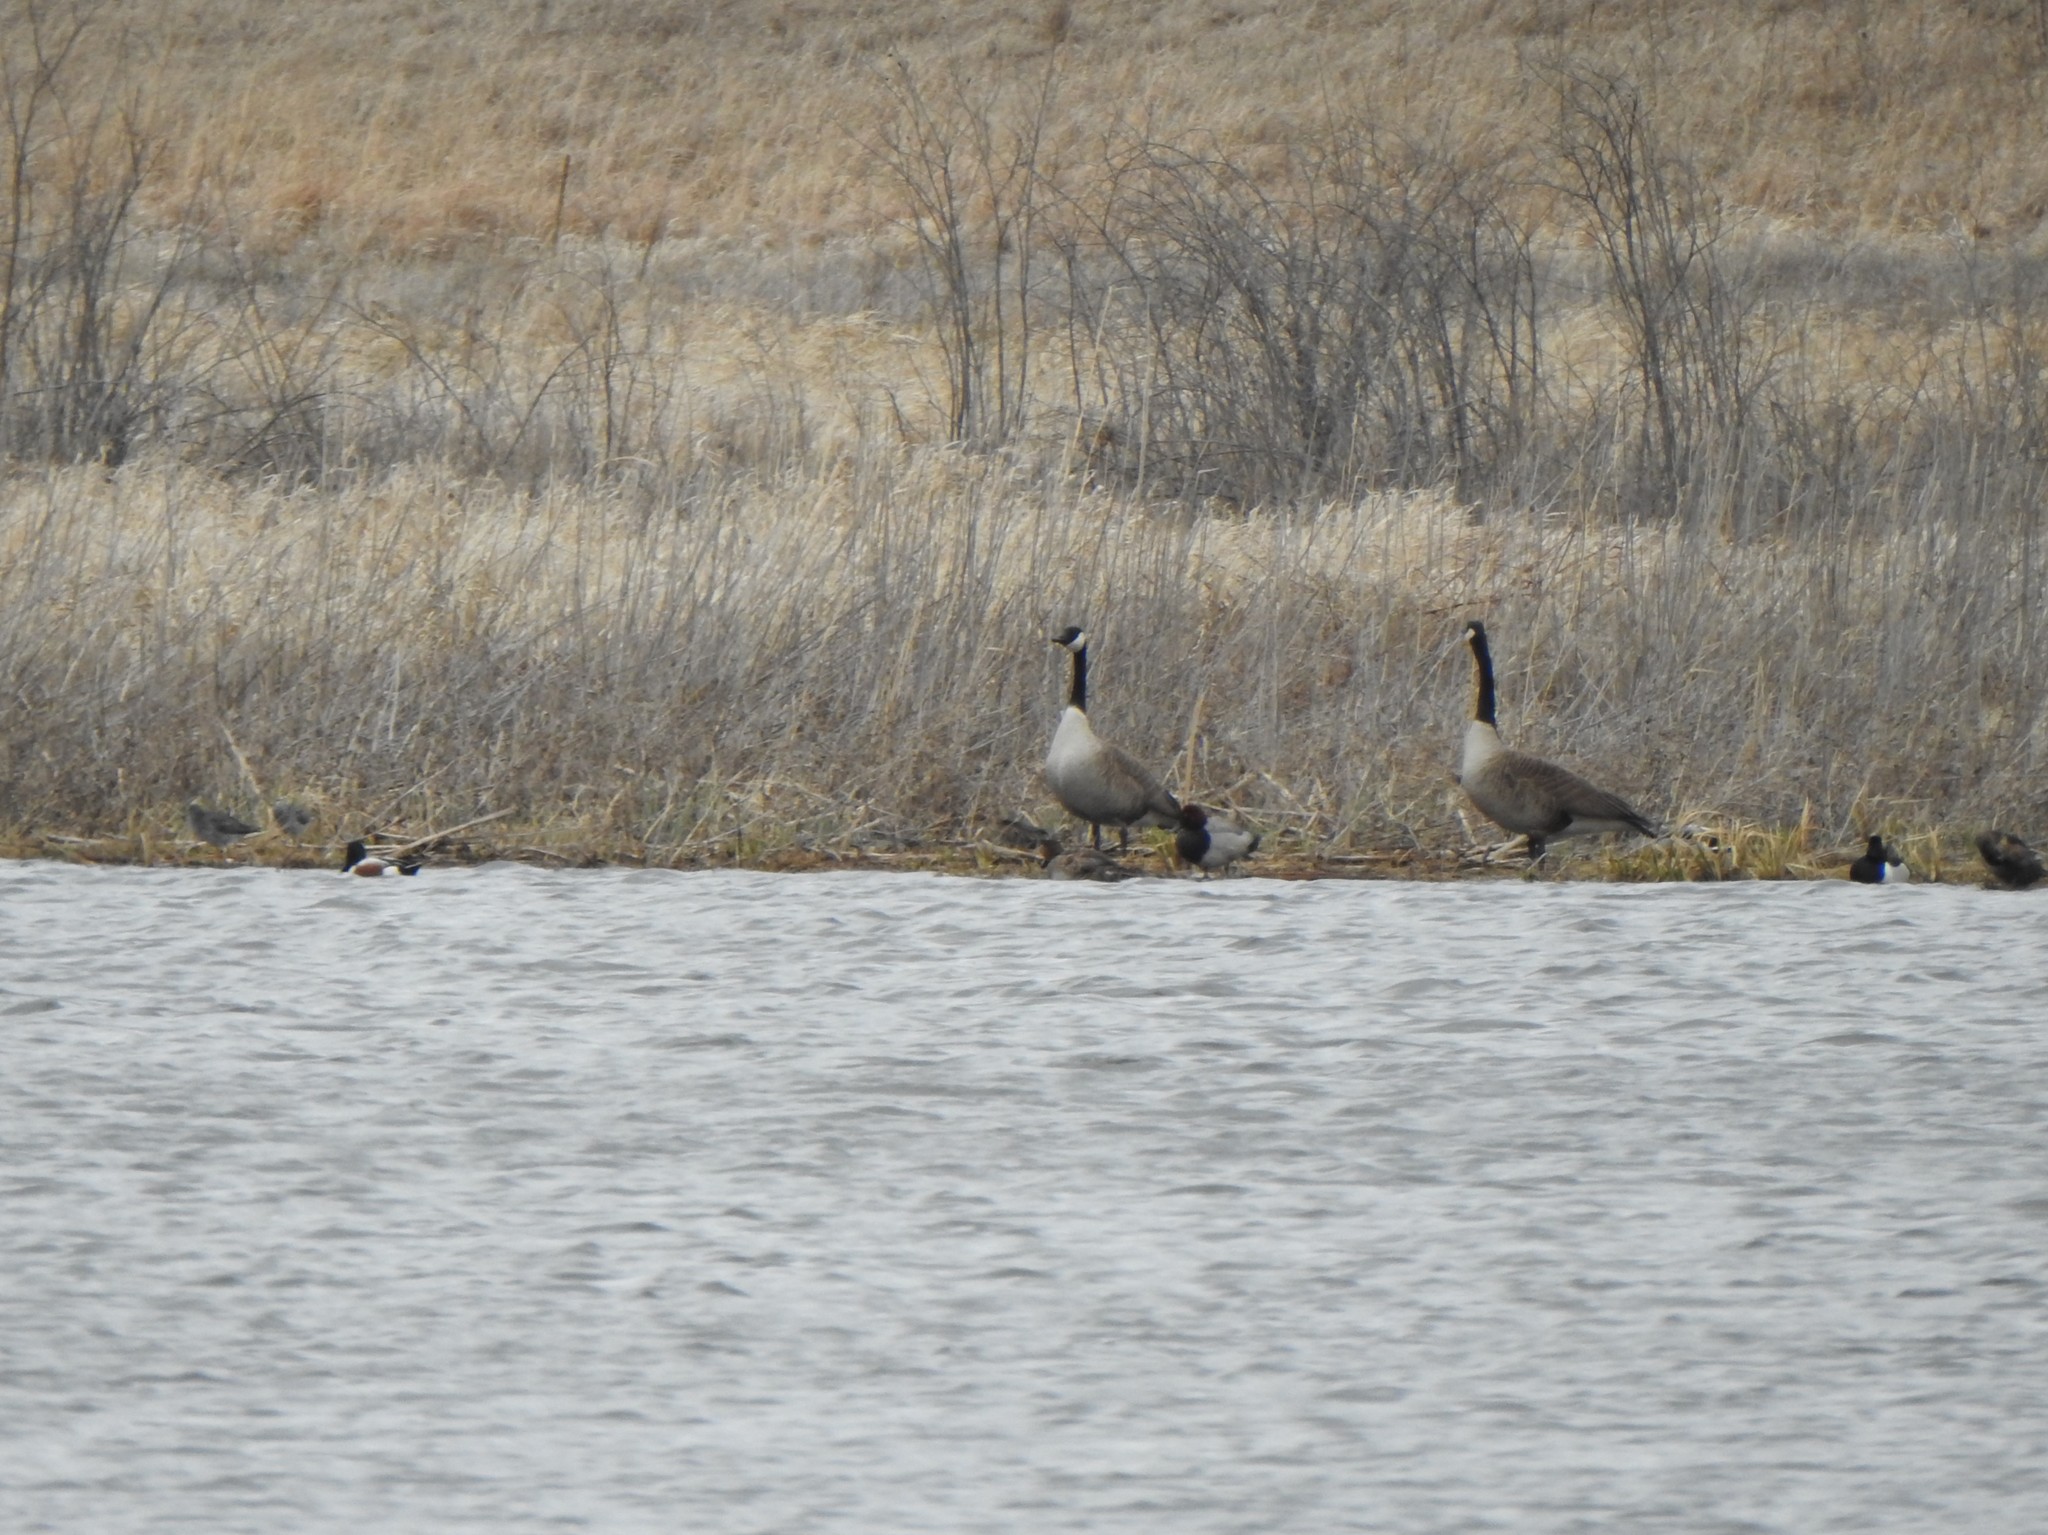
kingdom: Animalia
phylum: Chordata
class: Aves
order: Anseriformes
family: Anatidae
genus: Aythya
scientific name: Aythya americana
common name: Redhead
